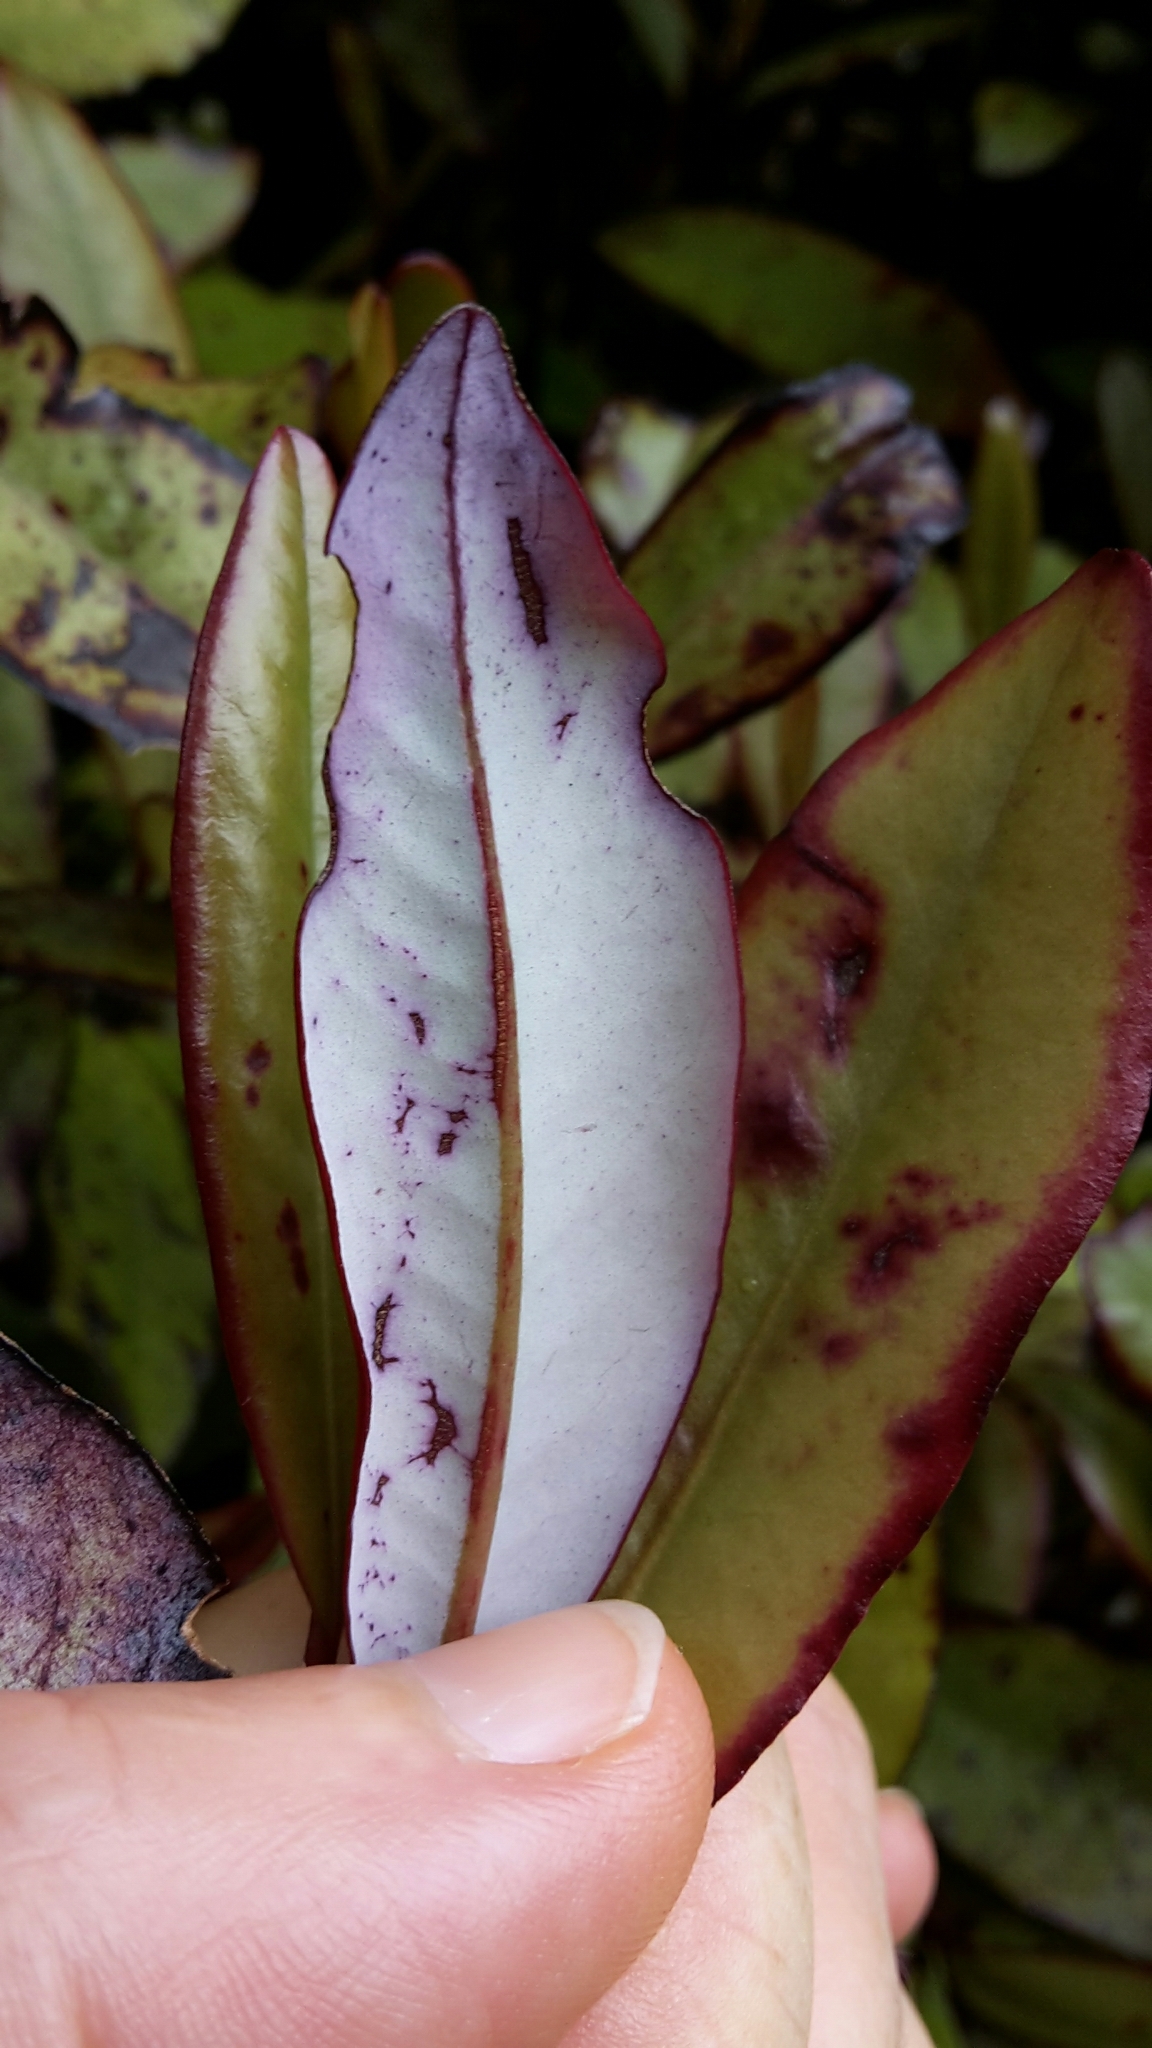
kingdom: Plantae
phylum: Tracheophyta
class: Magnoliopsida
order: Canellales
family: Winteraceae
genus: Pseudowintera
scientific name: Pseudowintera colorata
